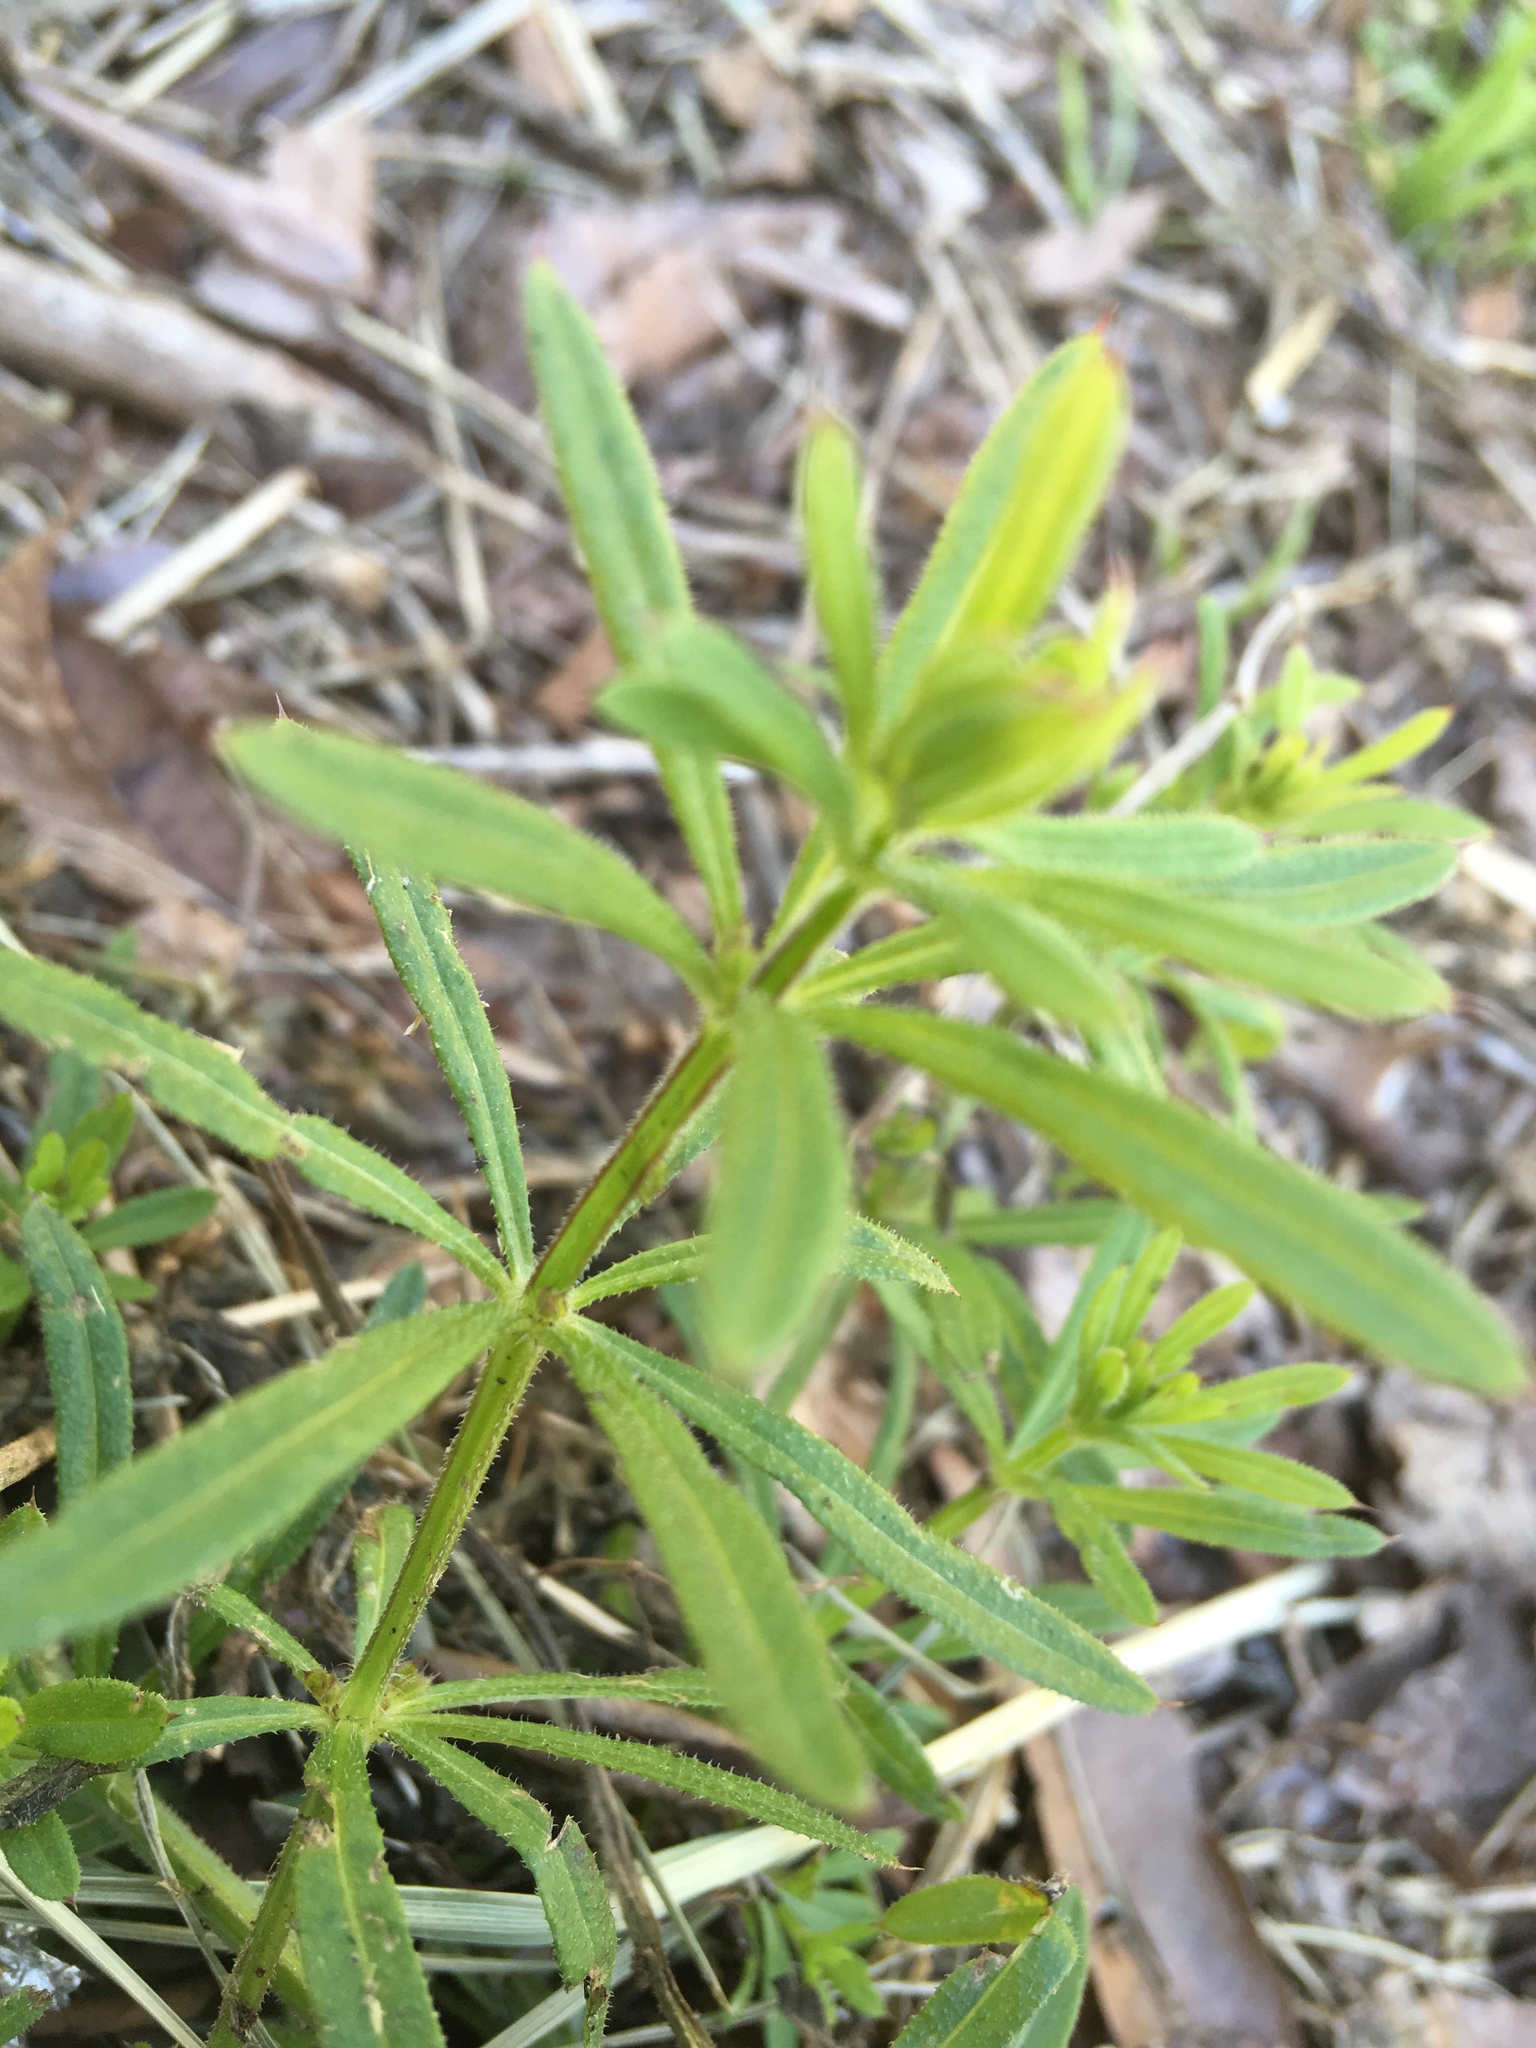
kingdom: Plantae
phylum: Tracheophyta
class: Magnoliopsida
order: Gentianales
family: Rubiaceae
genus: Galium
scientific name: Galium aparine
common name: Cleavers
